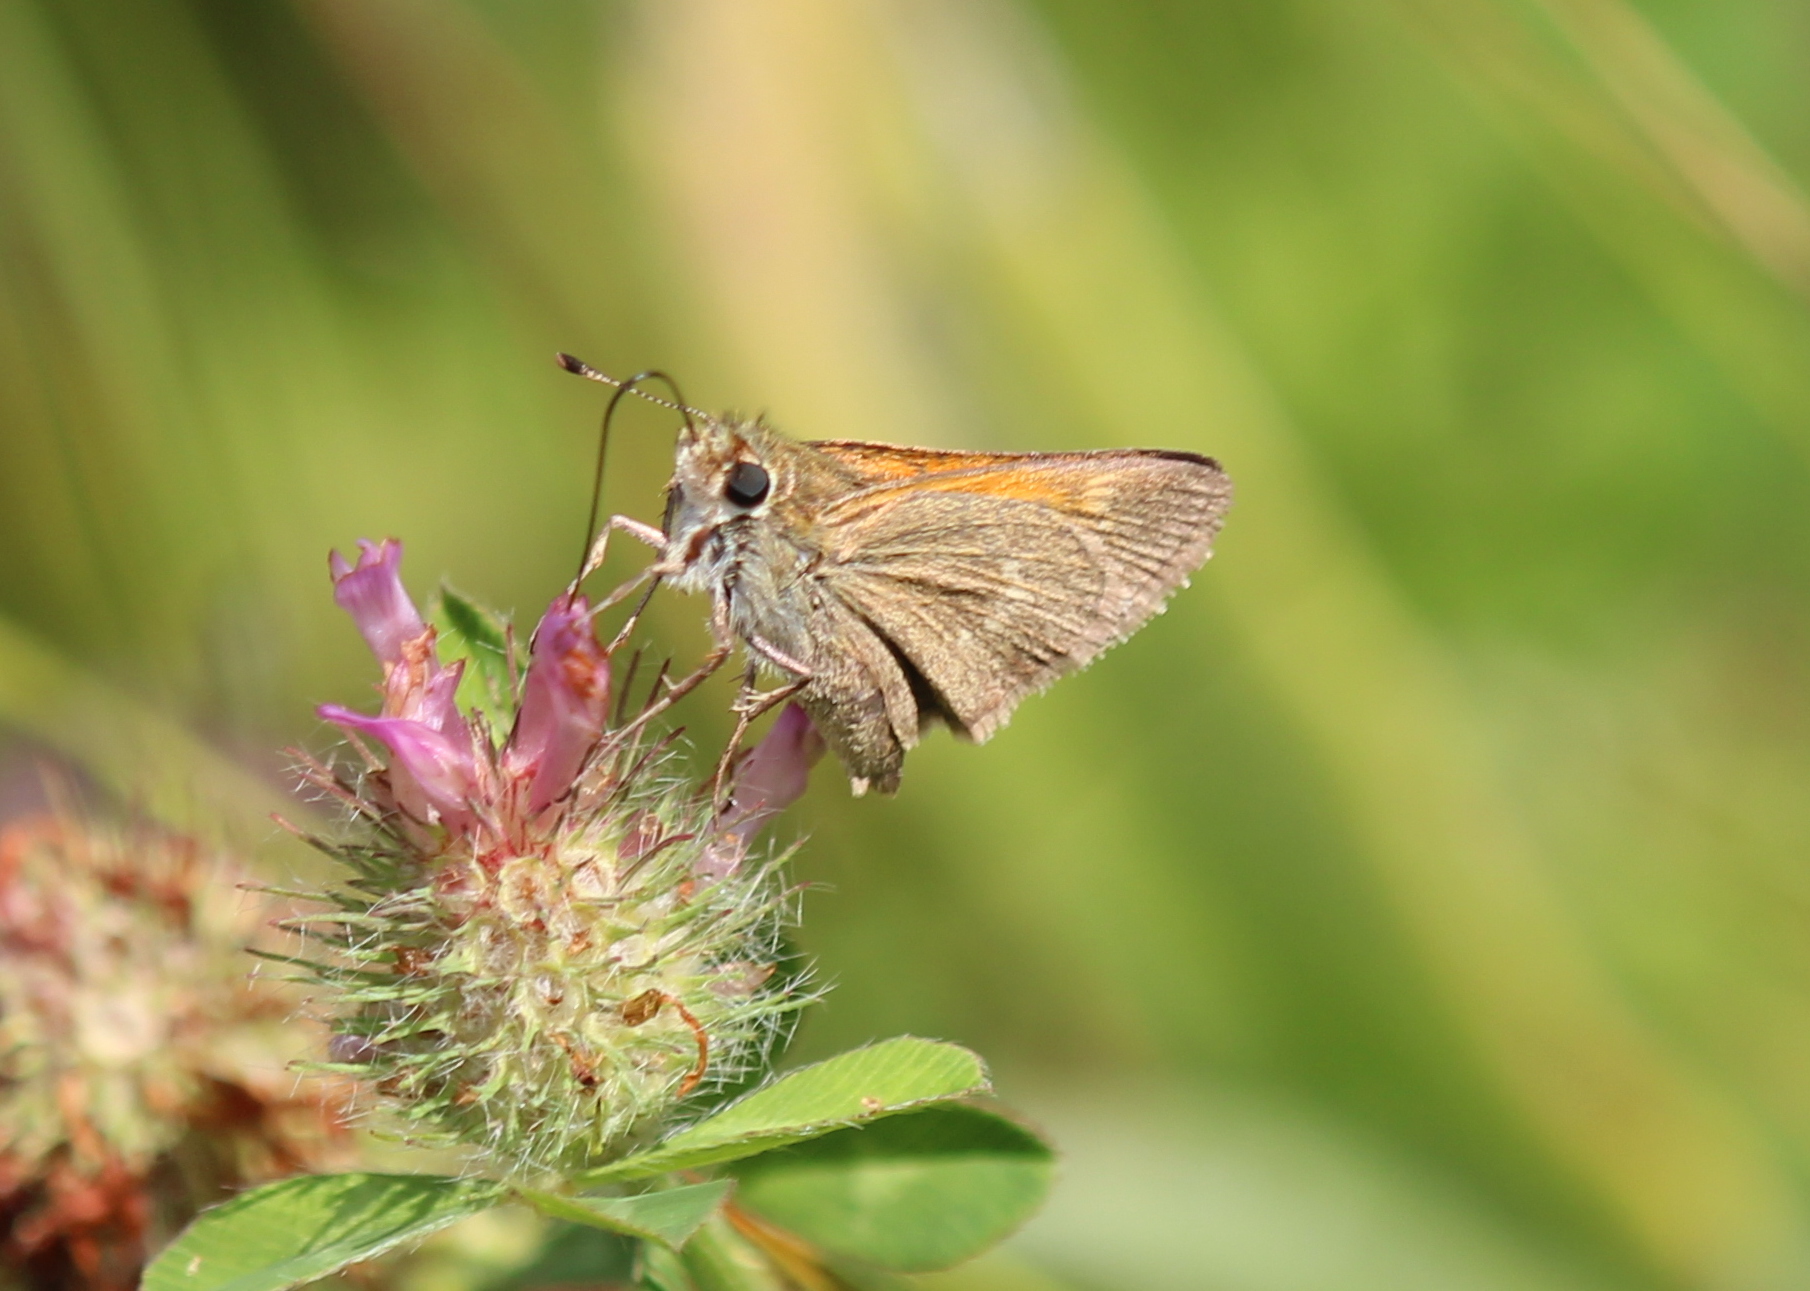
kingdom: Animalia
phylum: Arthropoda
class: Insecta
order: Lepidoptera
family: Hesperiidae
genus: Polites
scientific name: Polites themistocles
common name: Tawny-edged skipper
